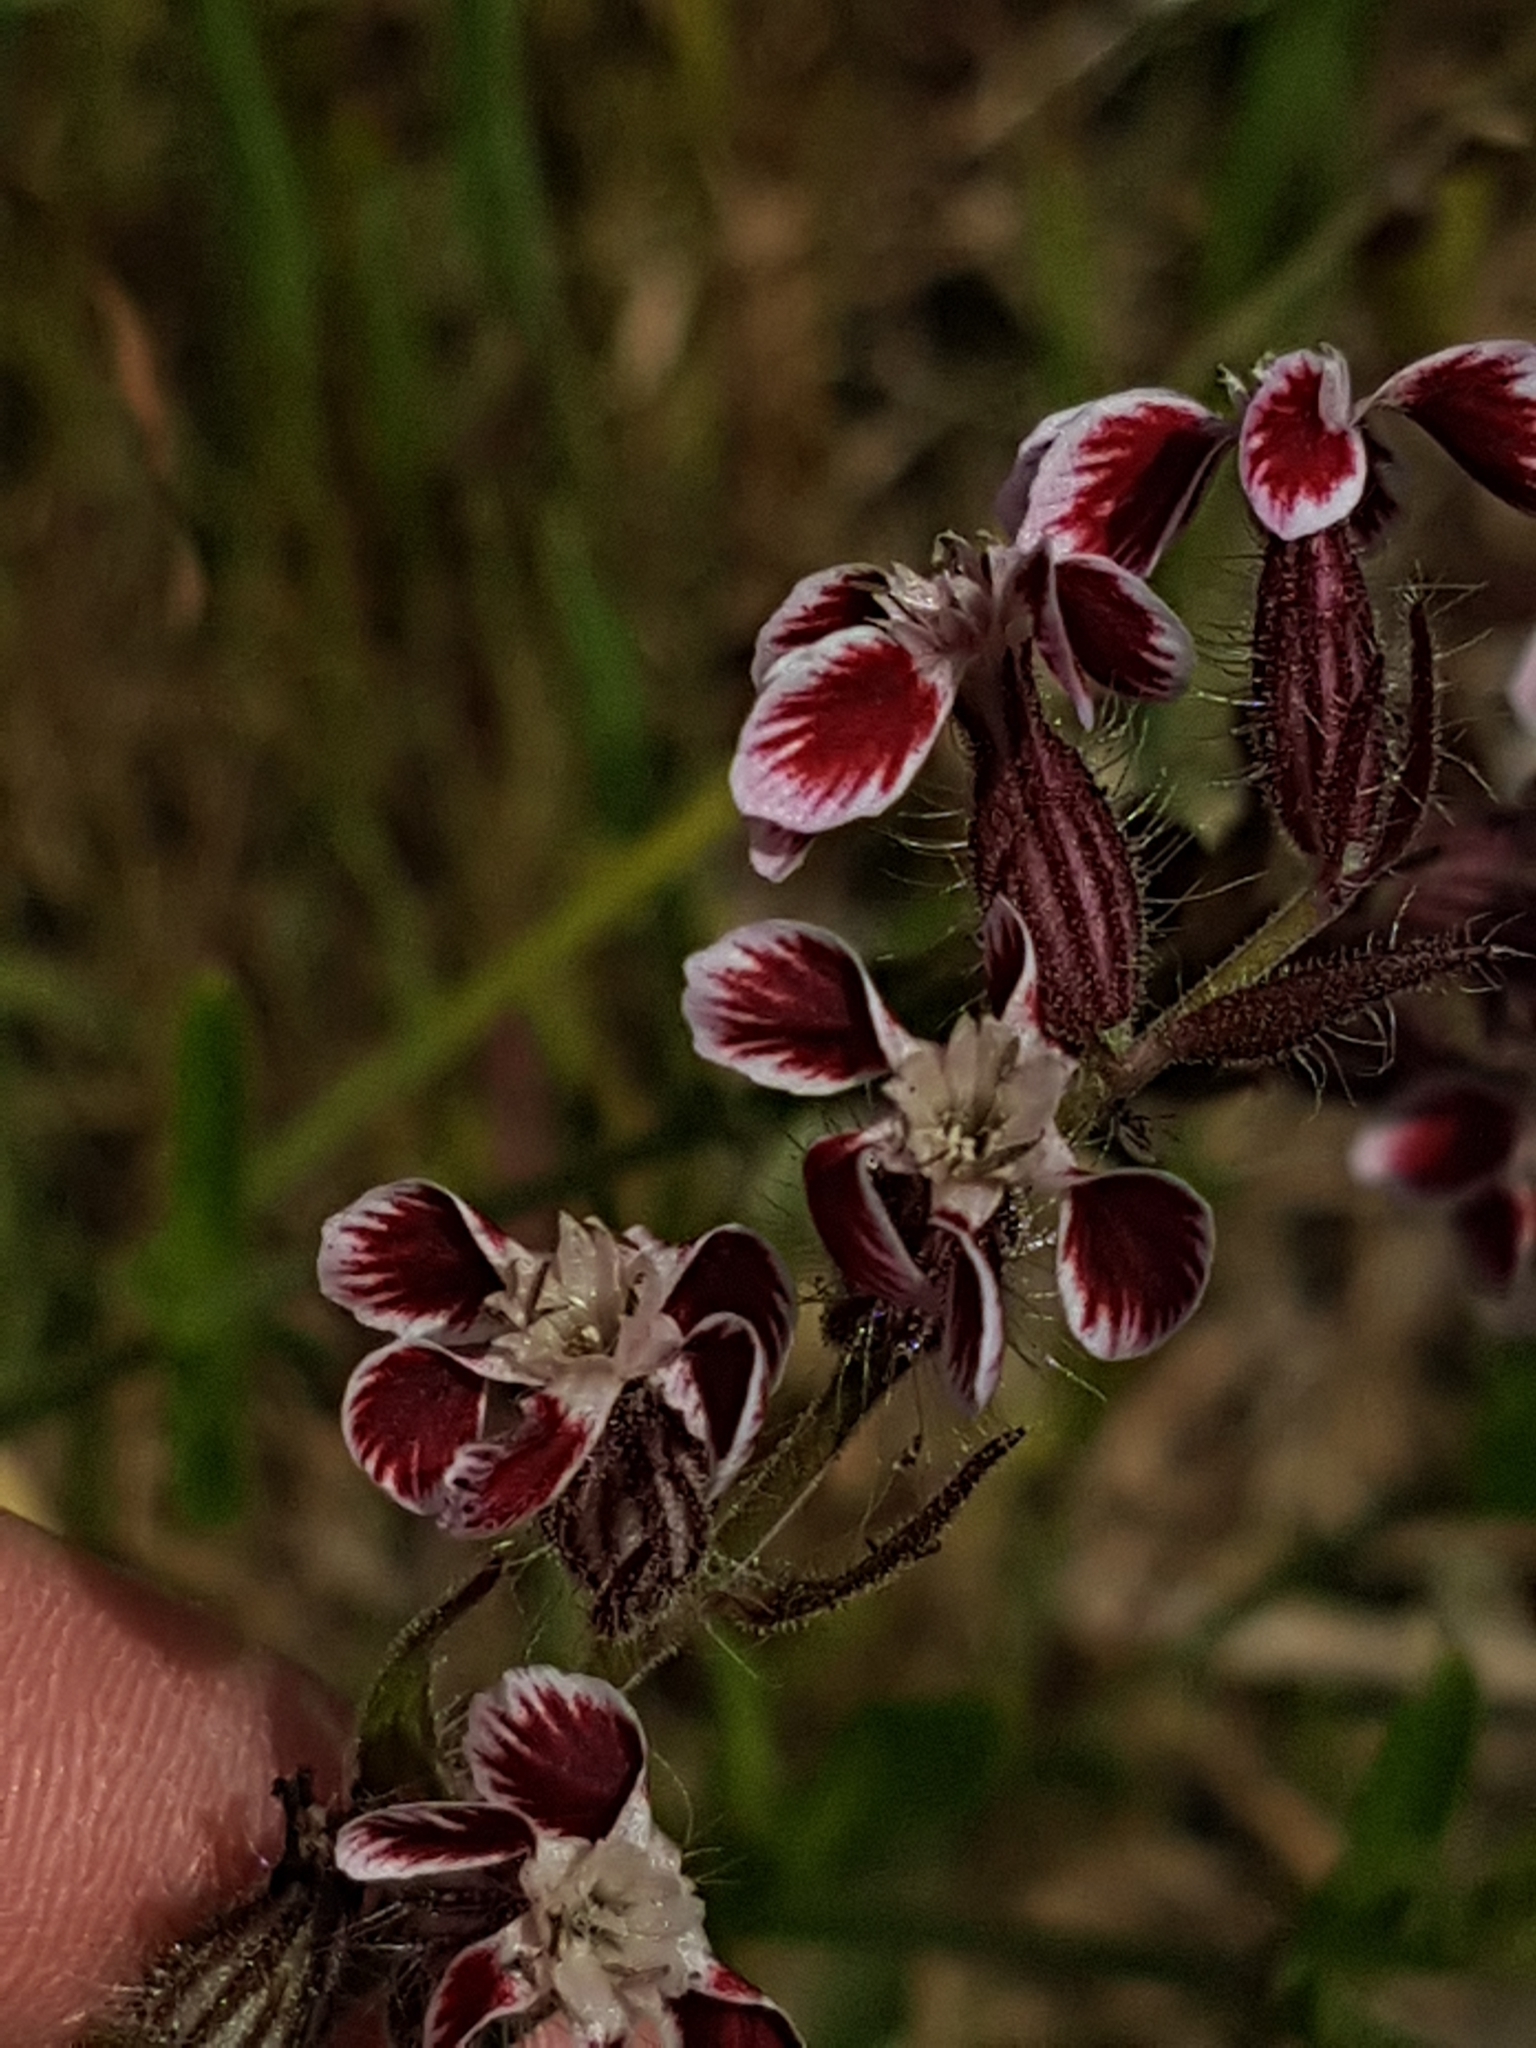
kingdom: Plantae
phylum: Tracheophyta
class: Magnoliopsida
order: Caryophyllales
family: Caryophyllaceae
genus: Silene
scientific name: Silene gallica
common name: Small-flowered catchfly
